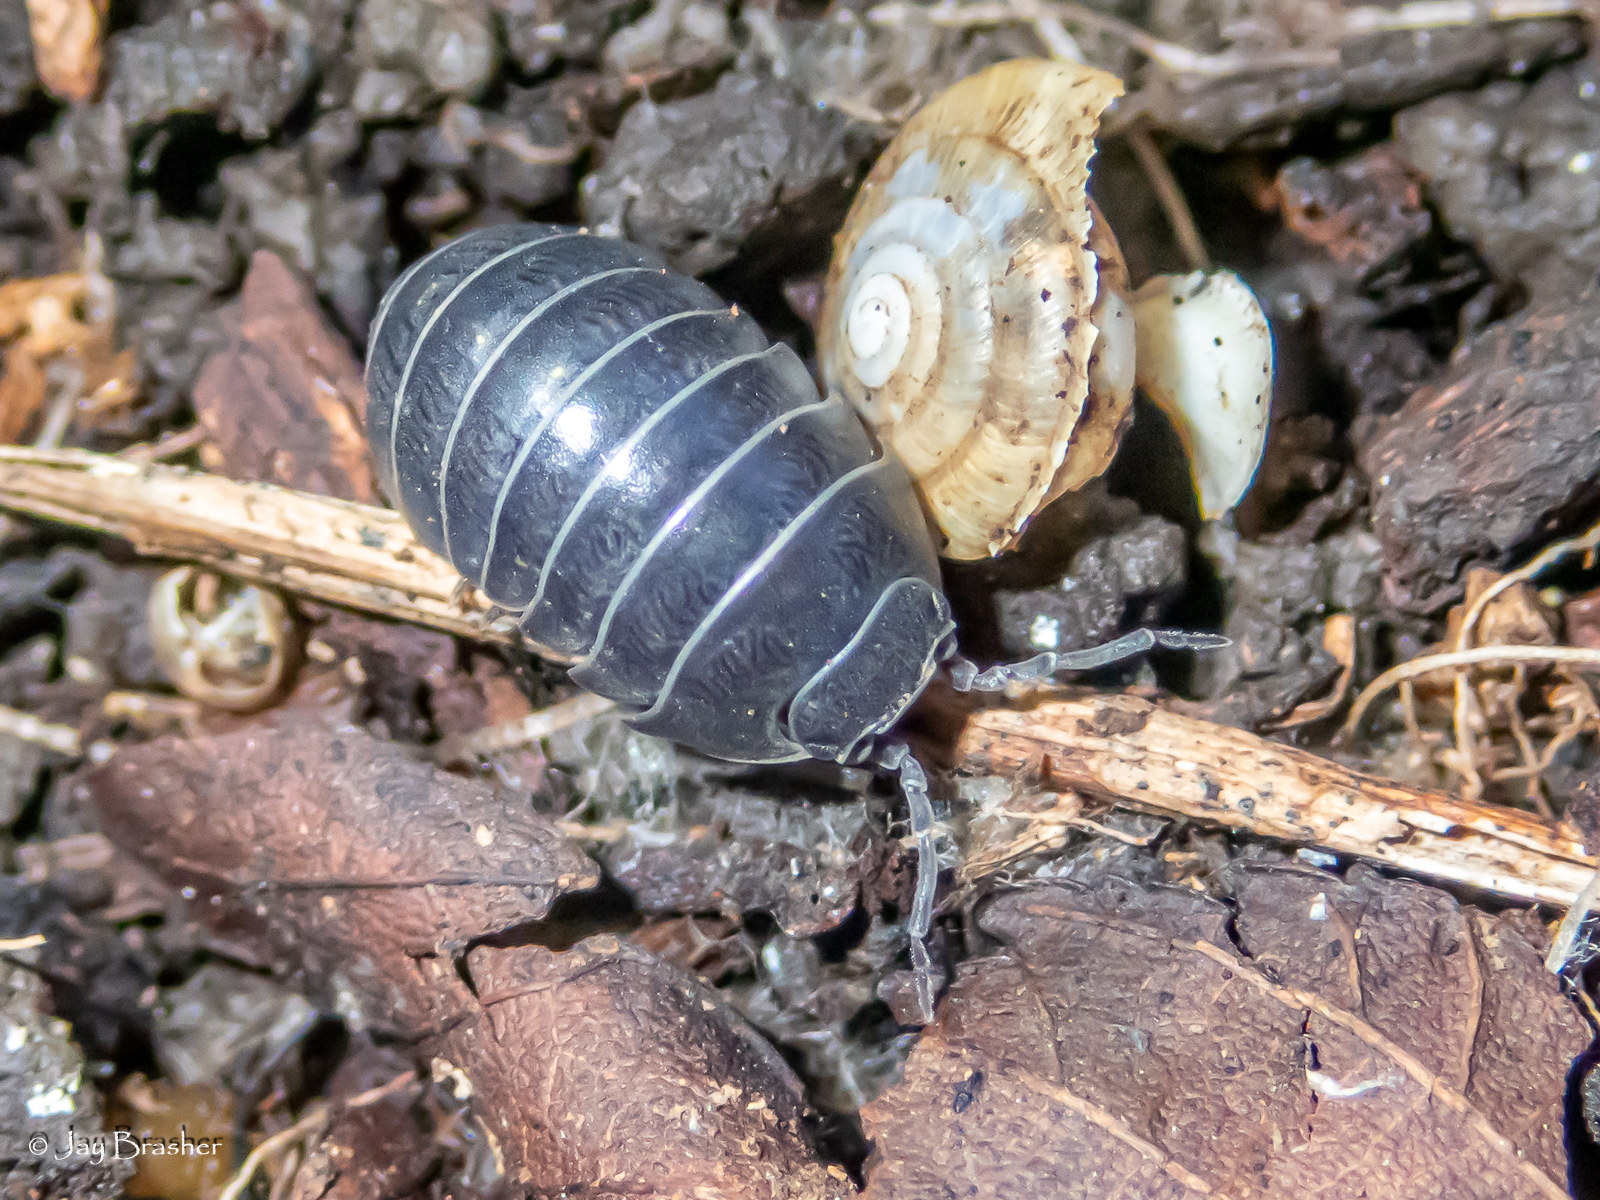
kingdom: Animalia
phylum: Arthropoda
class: Malacostraca
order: Isopoda
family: Armadillidiidae
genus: Armadillidium
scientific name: Armadillidium vulgare
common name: Common pill woodlouse
